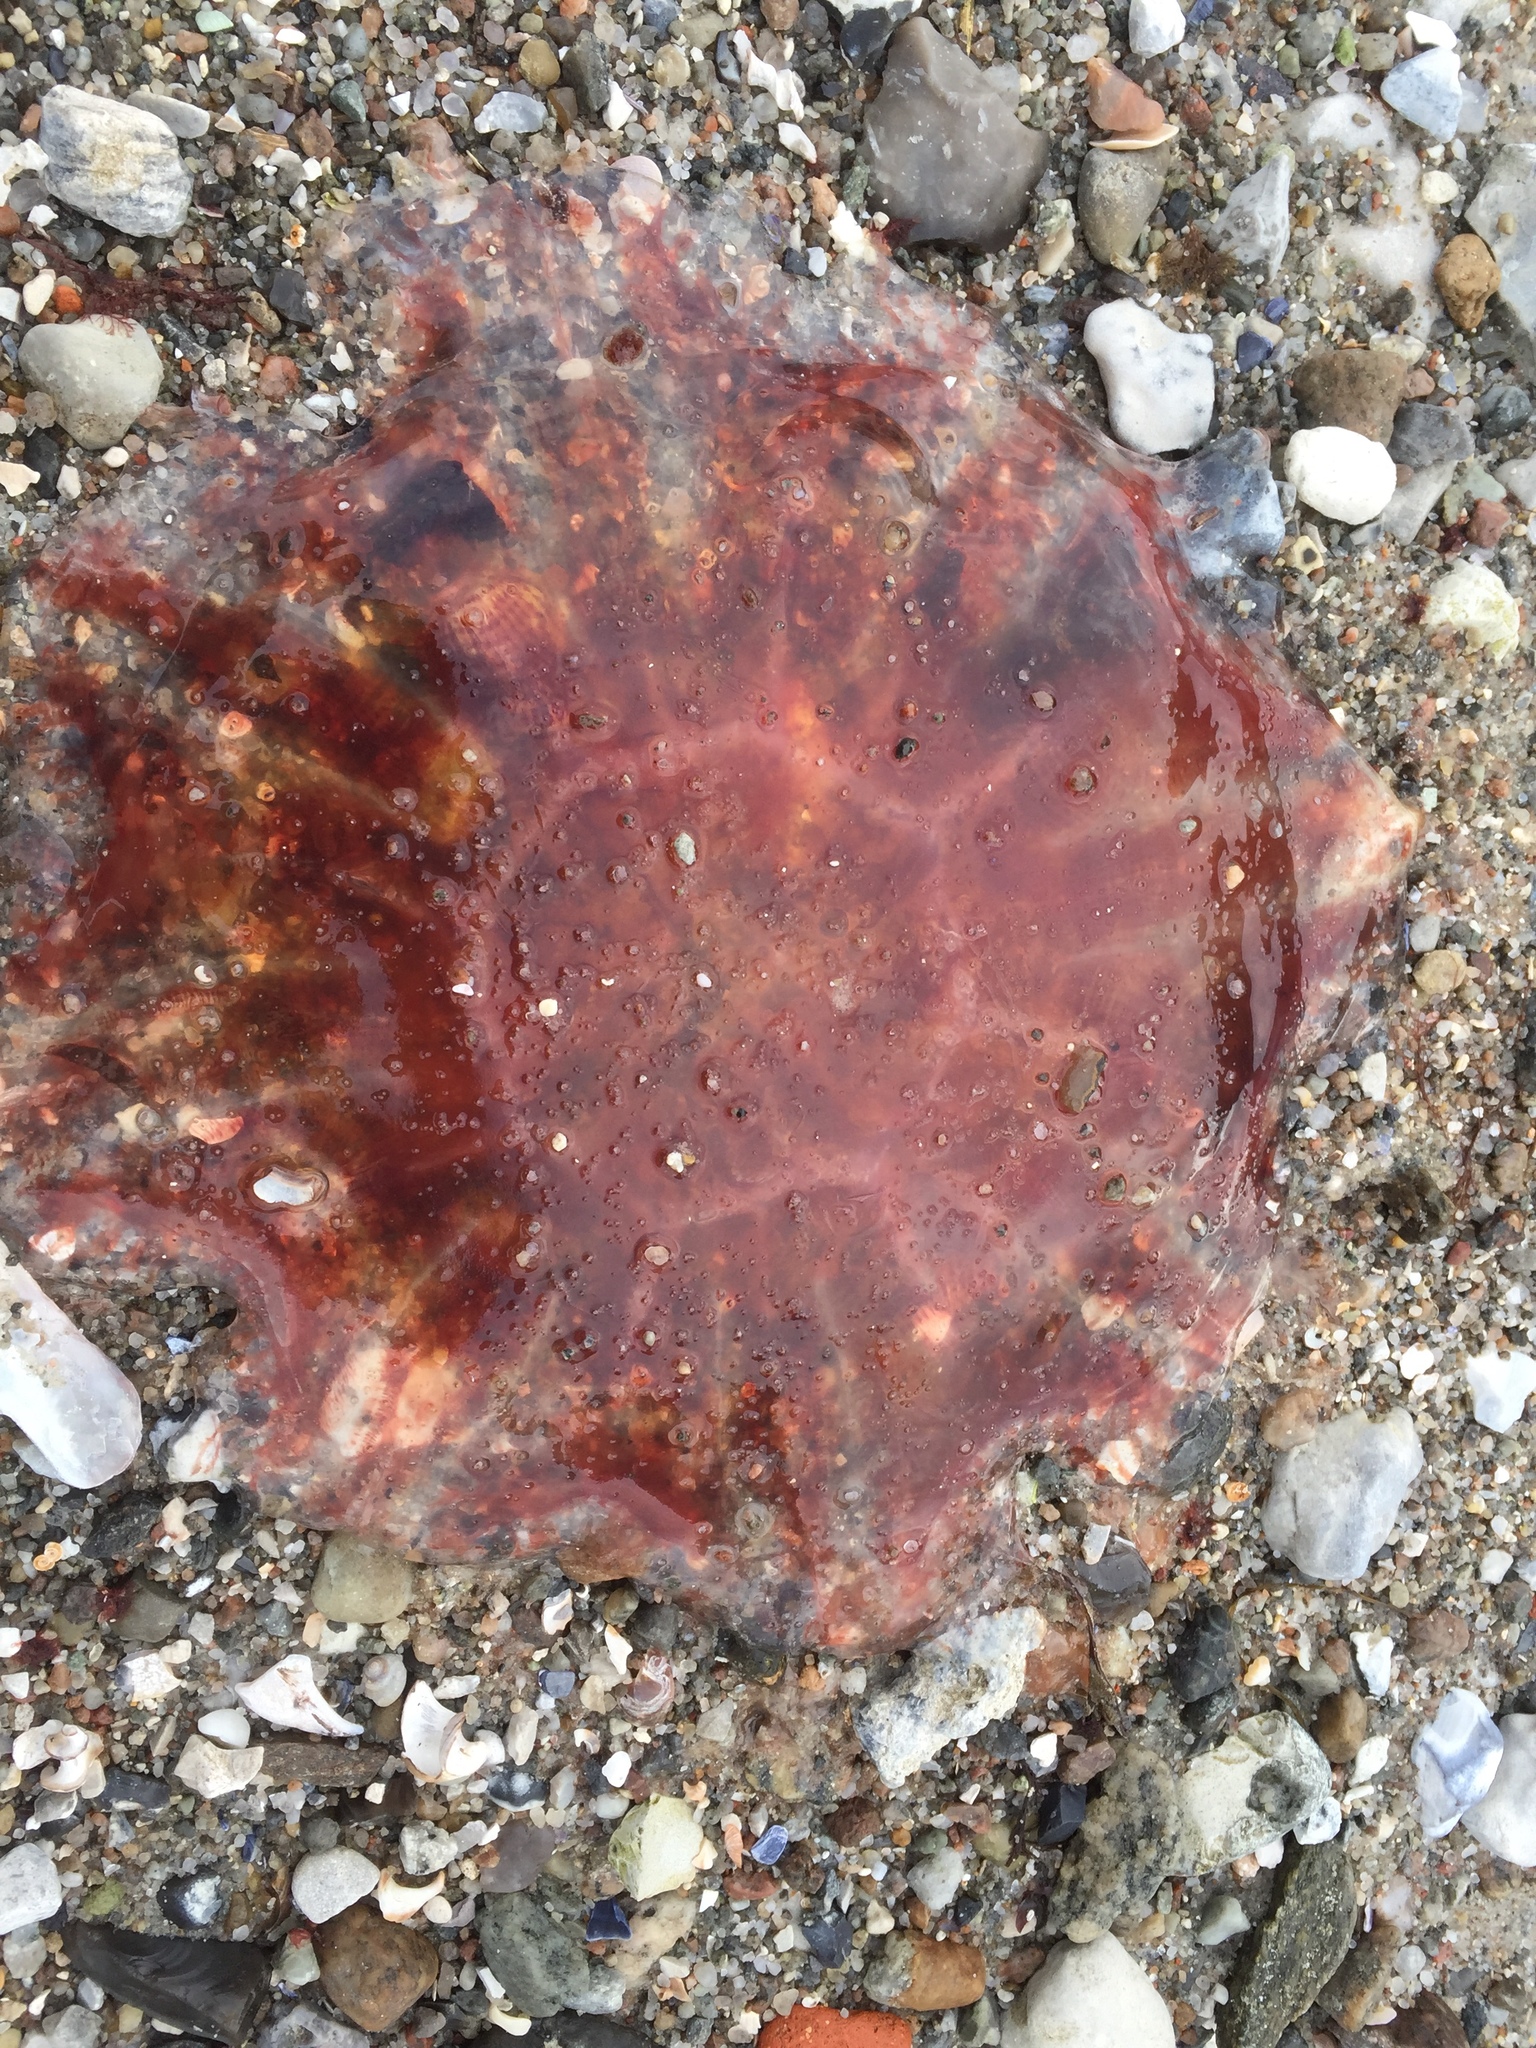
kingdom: Animalia
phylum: Cnidaria
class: Scyphozoa
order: Semaeostomeae
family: Cyaneidae
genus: Cyanea
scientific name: Cyanea capillata
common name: Lion's mane jellyfish
